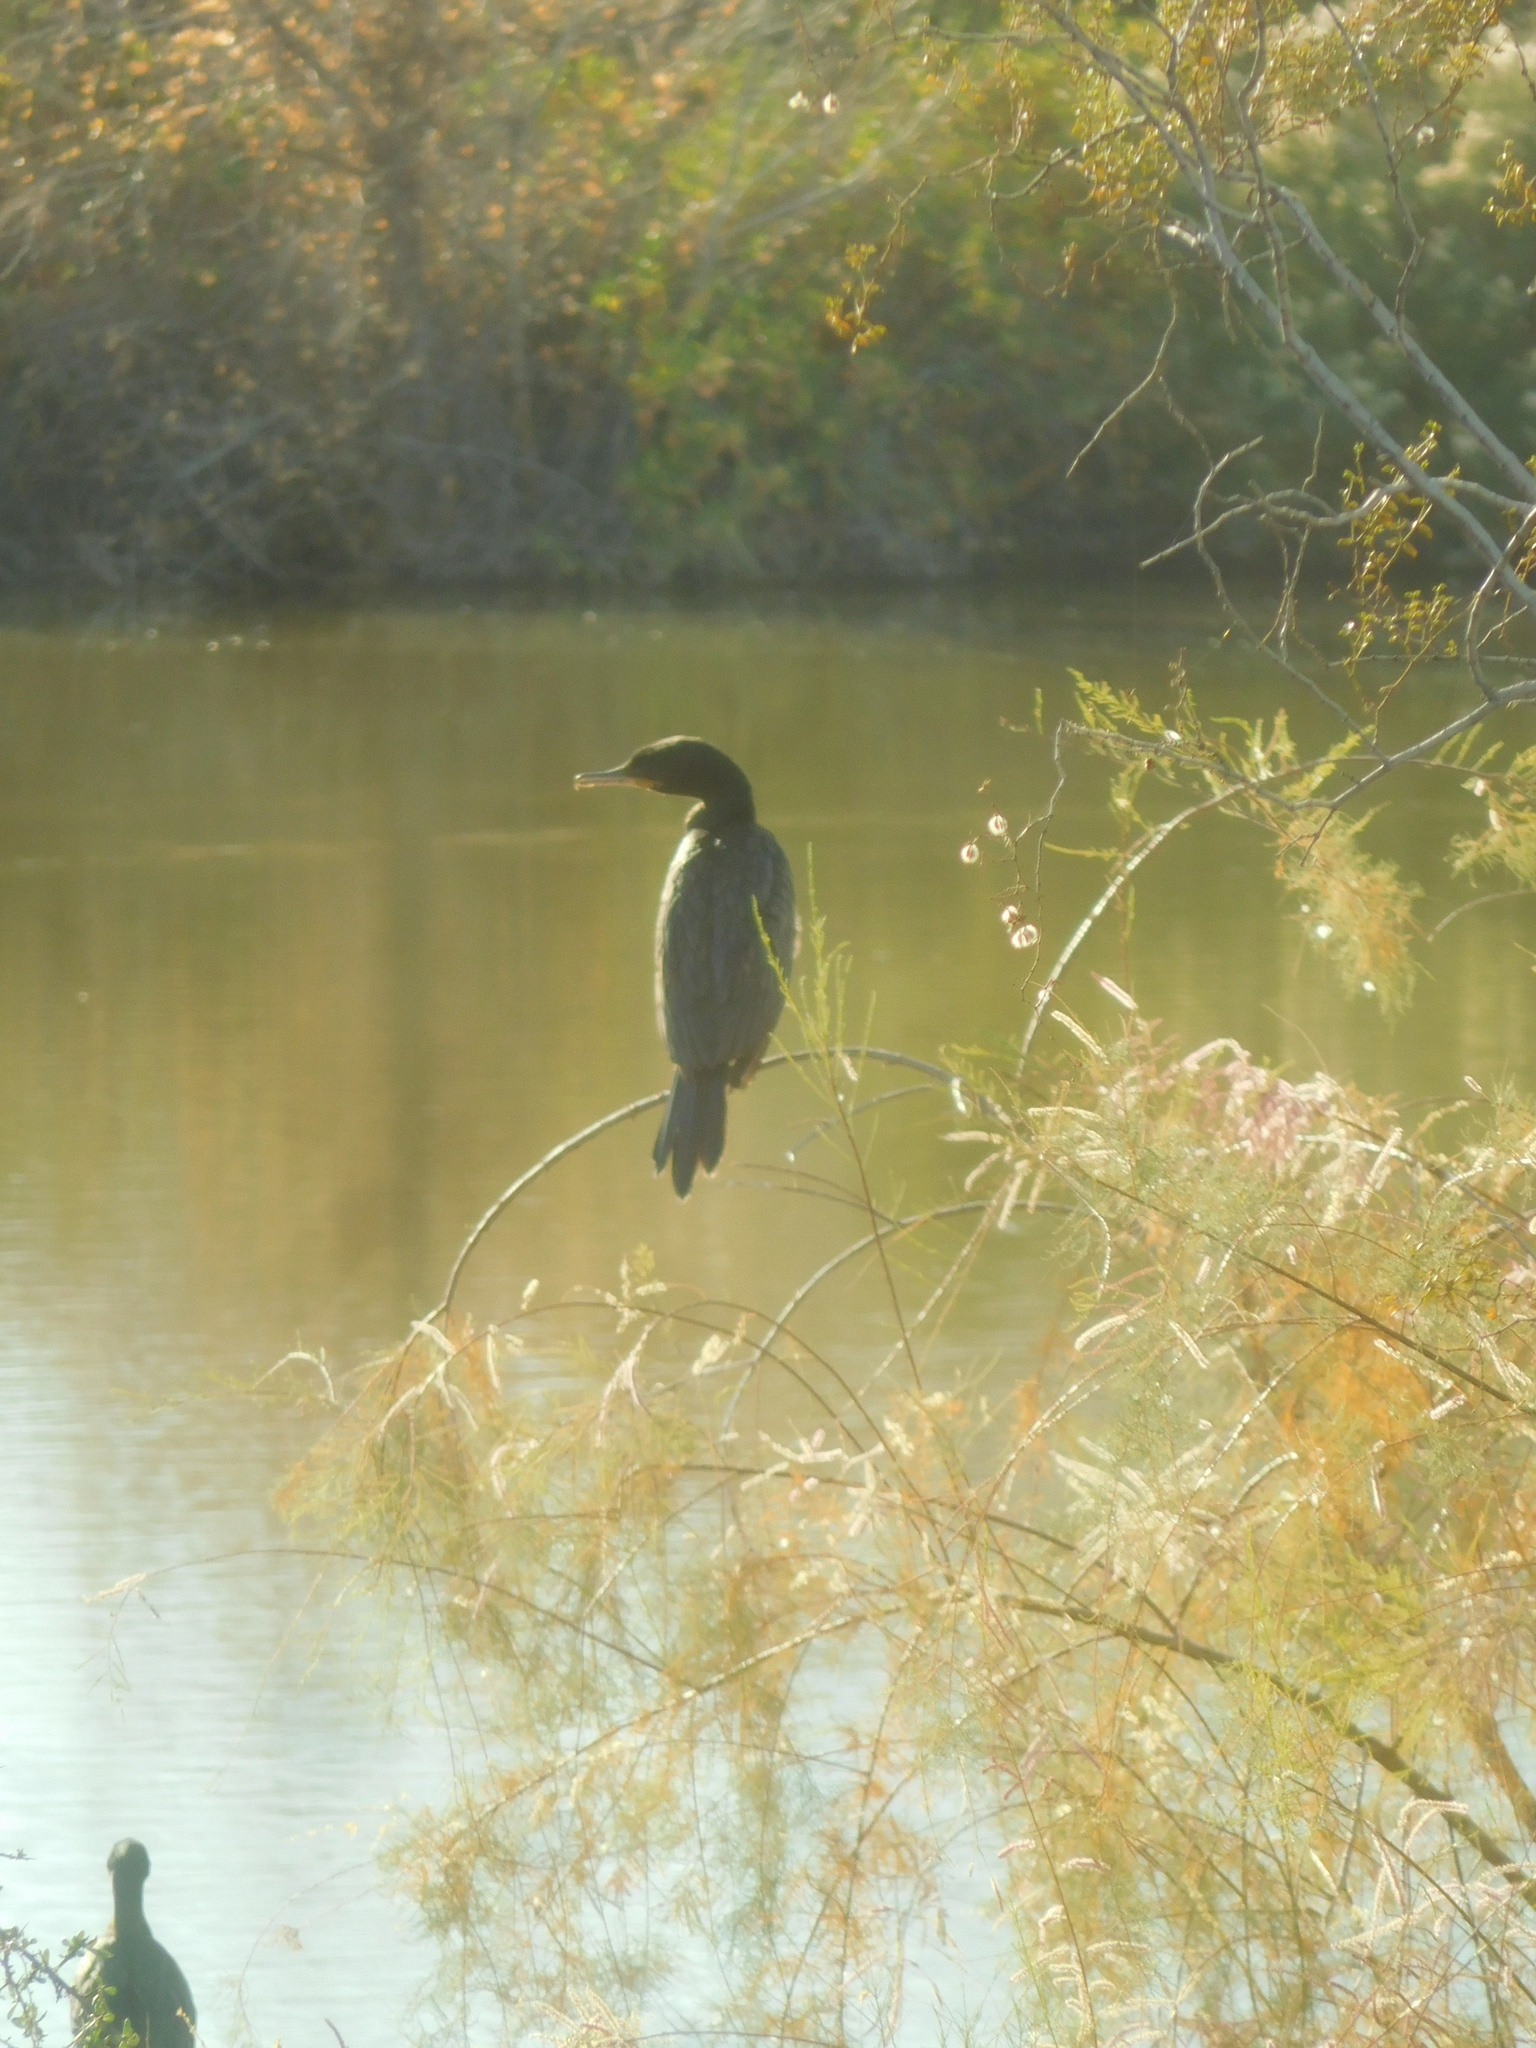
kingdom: Animalia
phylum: Chordata
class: Aves
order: Suliformes
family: Phalacrocoracidae
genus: Phalacrocorax
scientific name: Phalacrocorax brasilianus
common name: Neotropic cormorant
